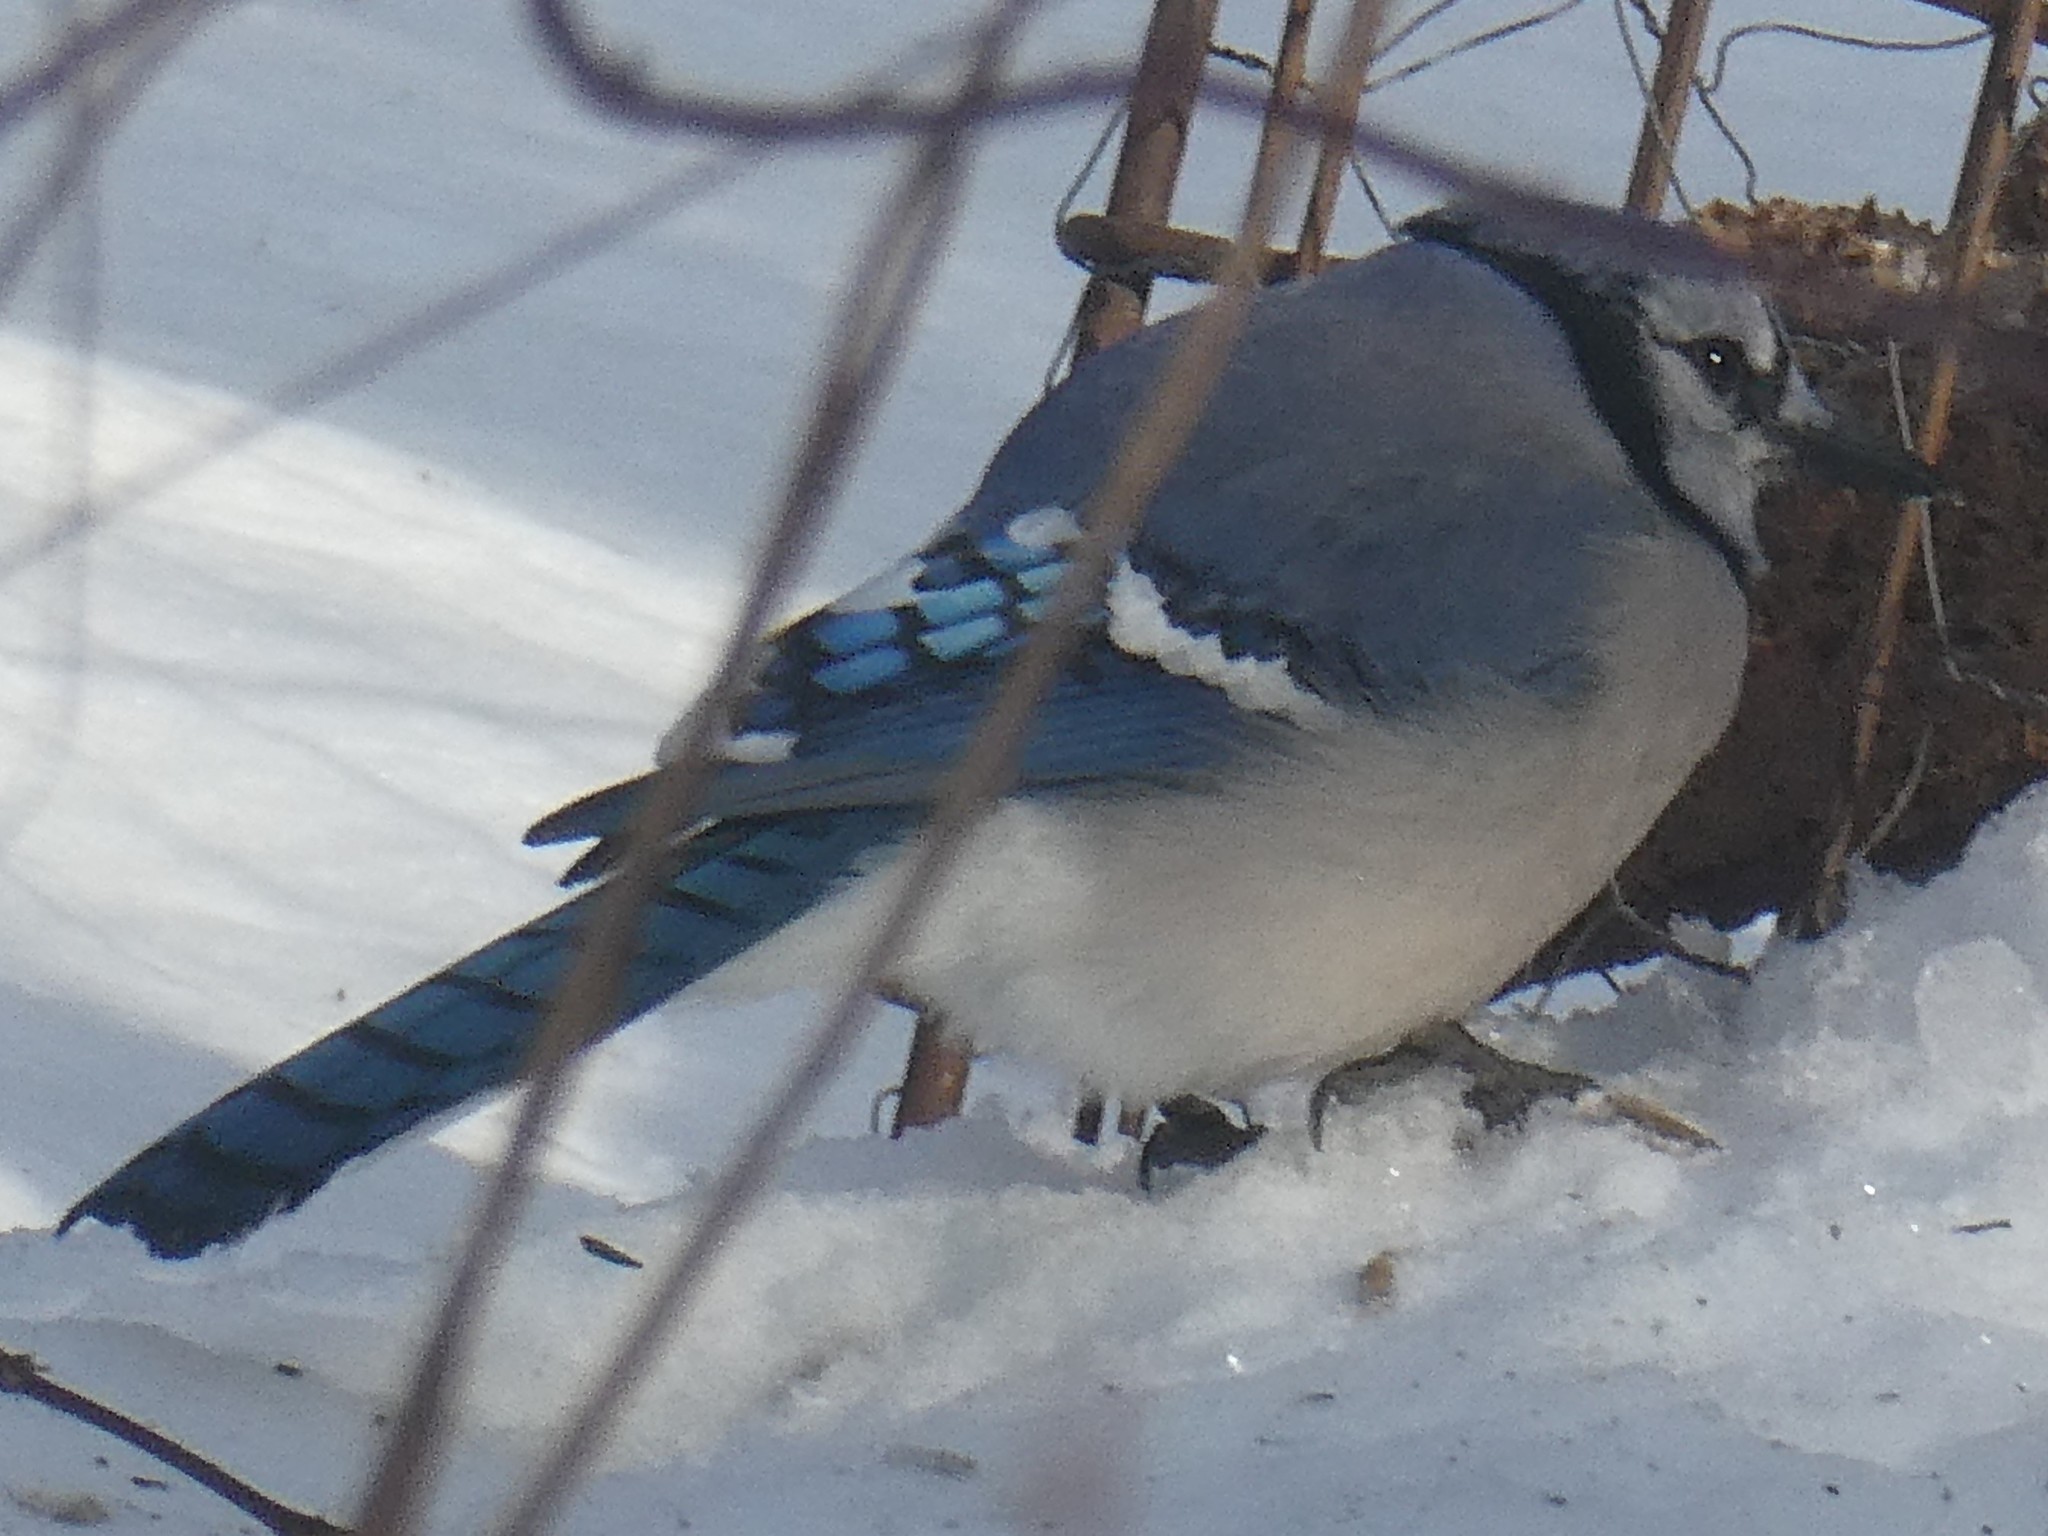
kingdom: Animalia
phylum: Chordata
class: Aves
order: Passeriformes
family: Corvidae
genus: Cyanocitta
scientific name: Cyanocitta cristata
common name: Blue jay
